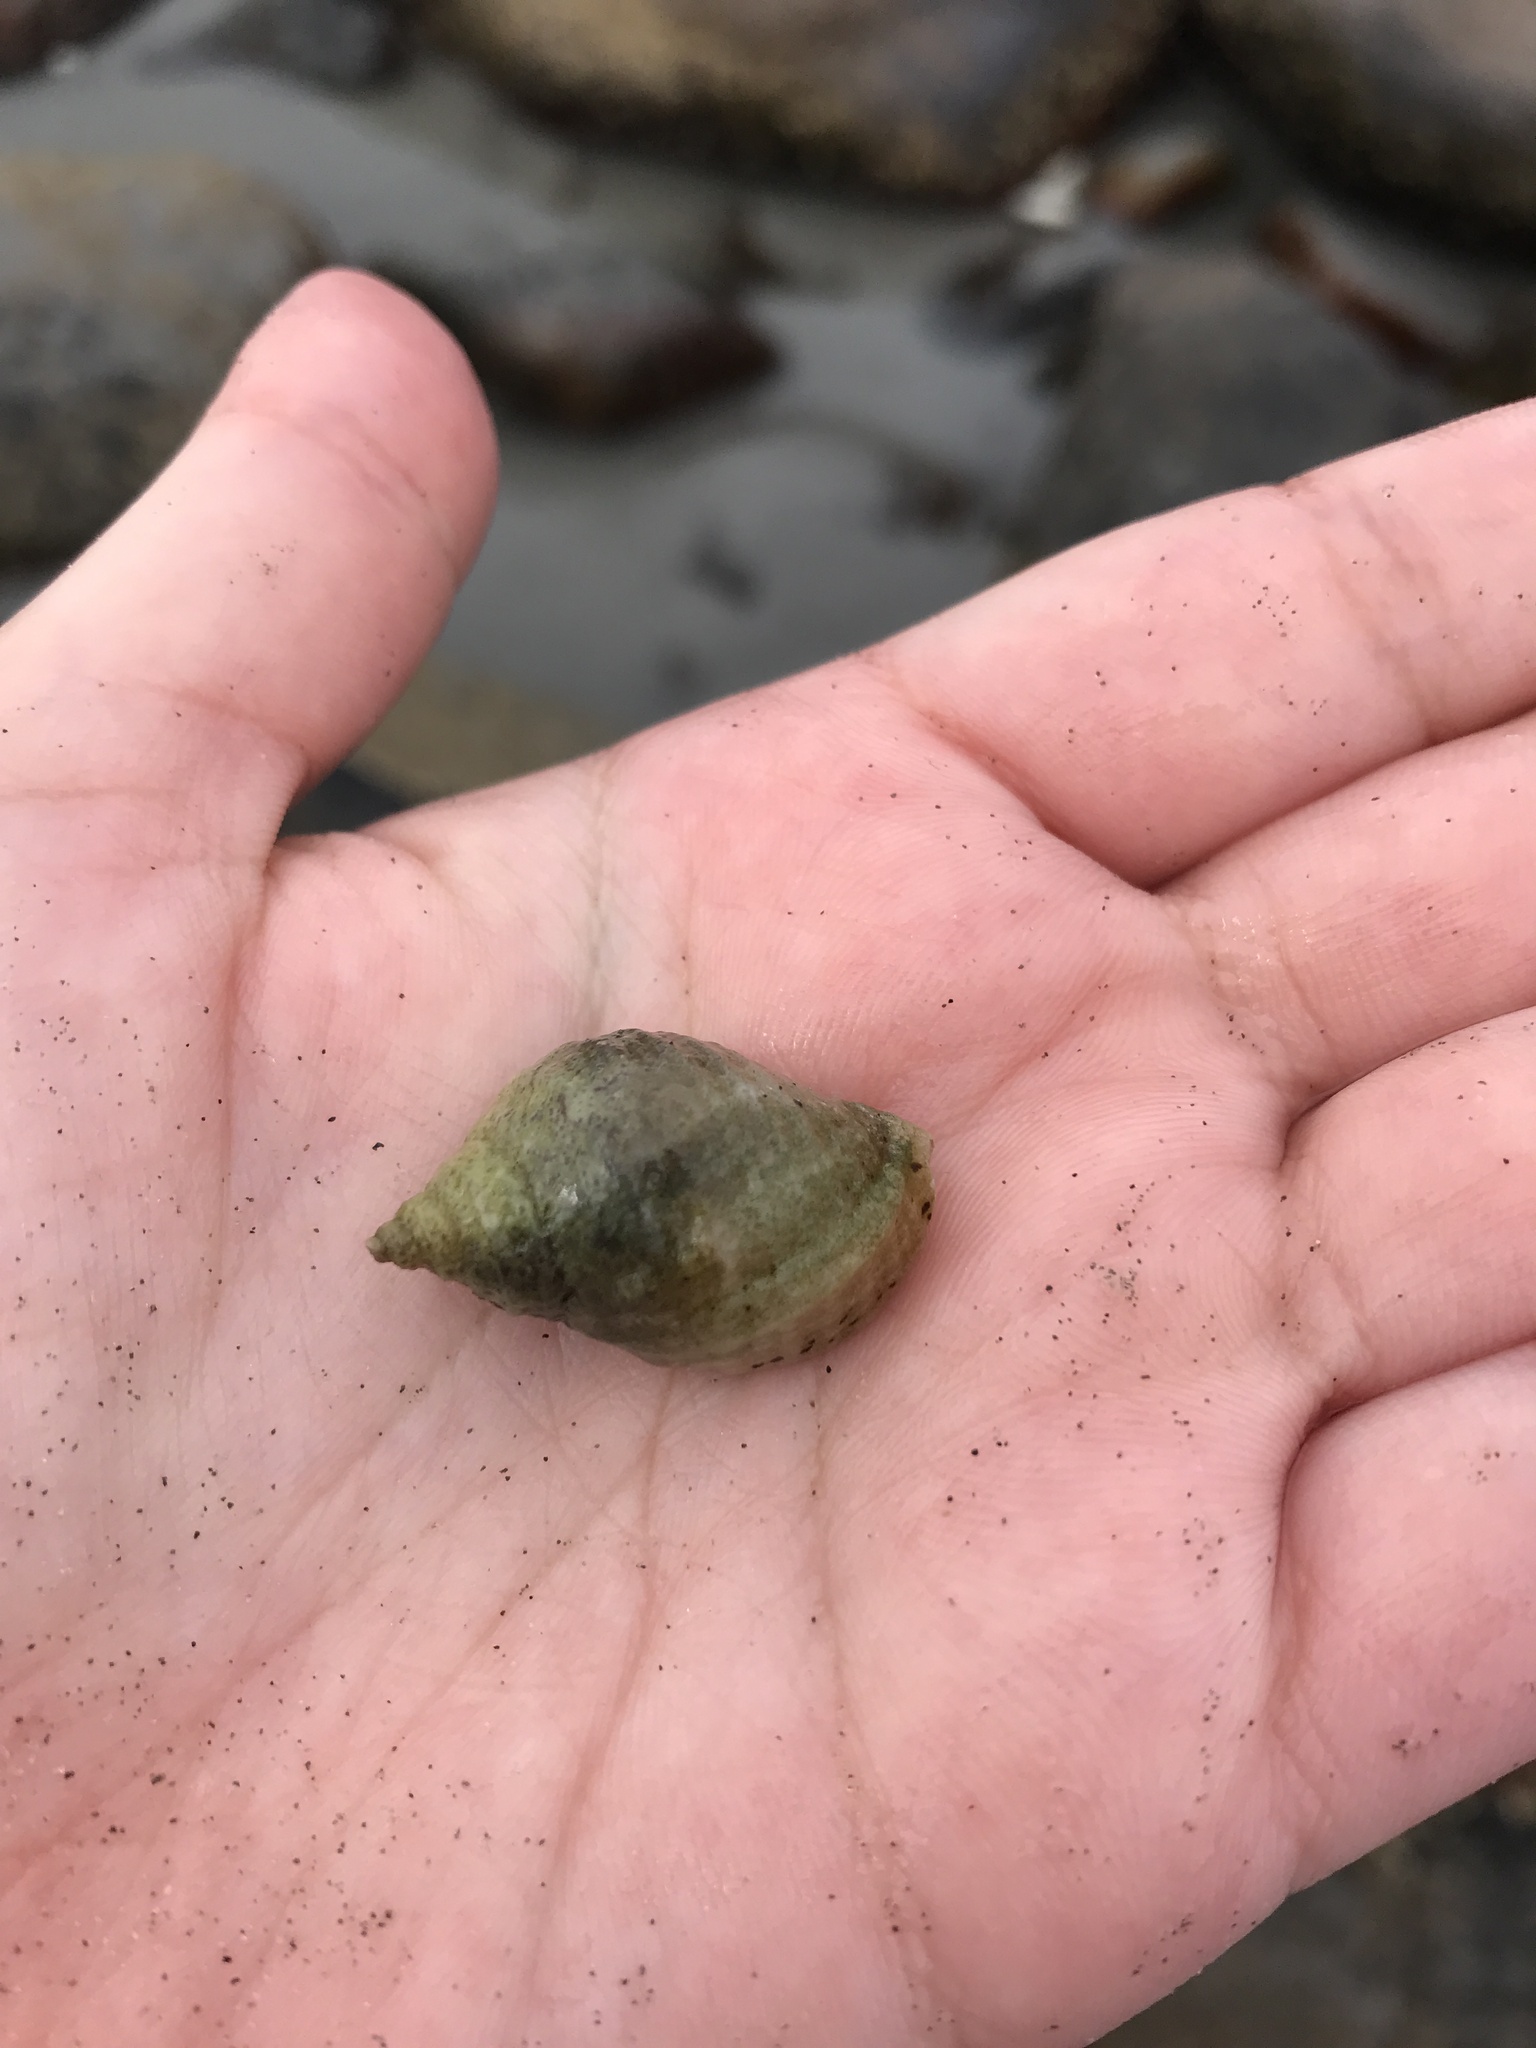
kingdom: Animalia
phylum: Mollusca
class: Gastropoda
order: Neogastropoda
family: Muricidae
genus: Nucella
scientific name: Nucella lapillus
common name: Dog whelk
